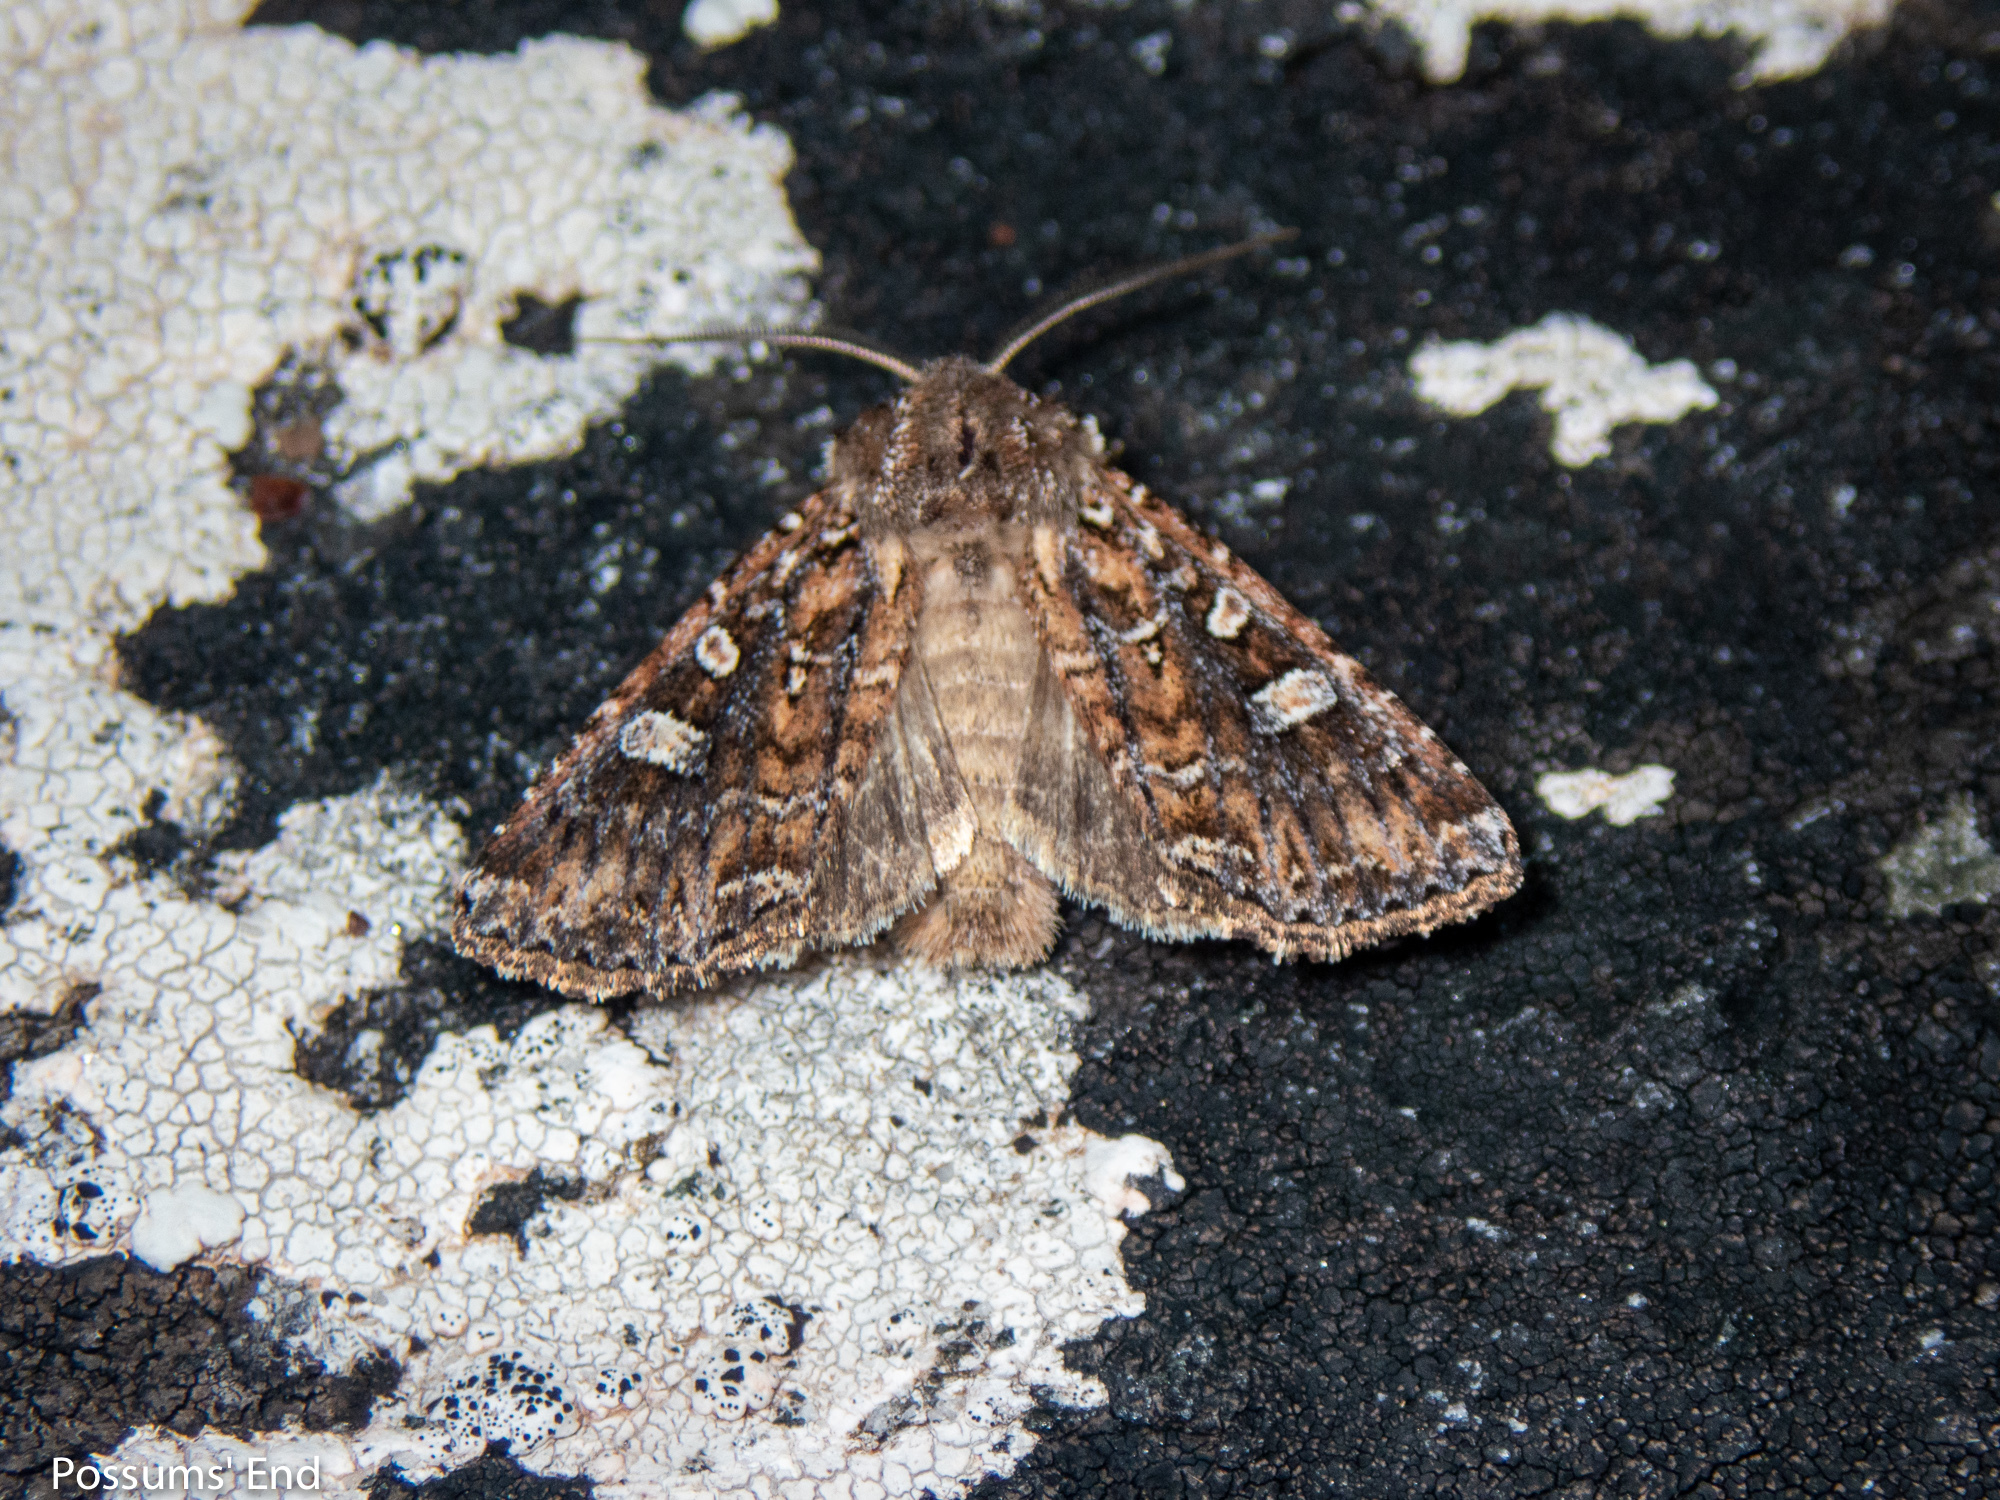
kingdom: Animalia
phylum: Arthropoda
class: Insecta
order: Lepidoptera
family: Noctuidae
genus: Ichneutica
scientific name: Ichneutica lithias
